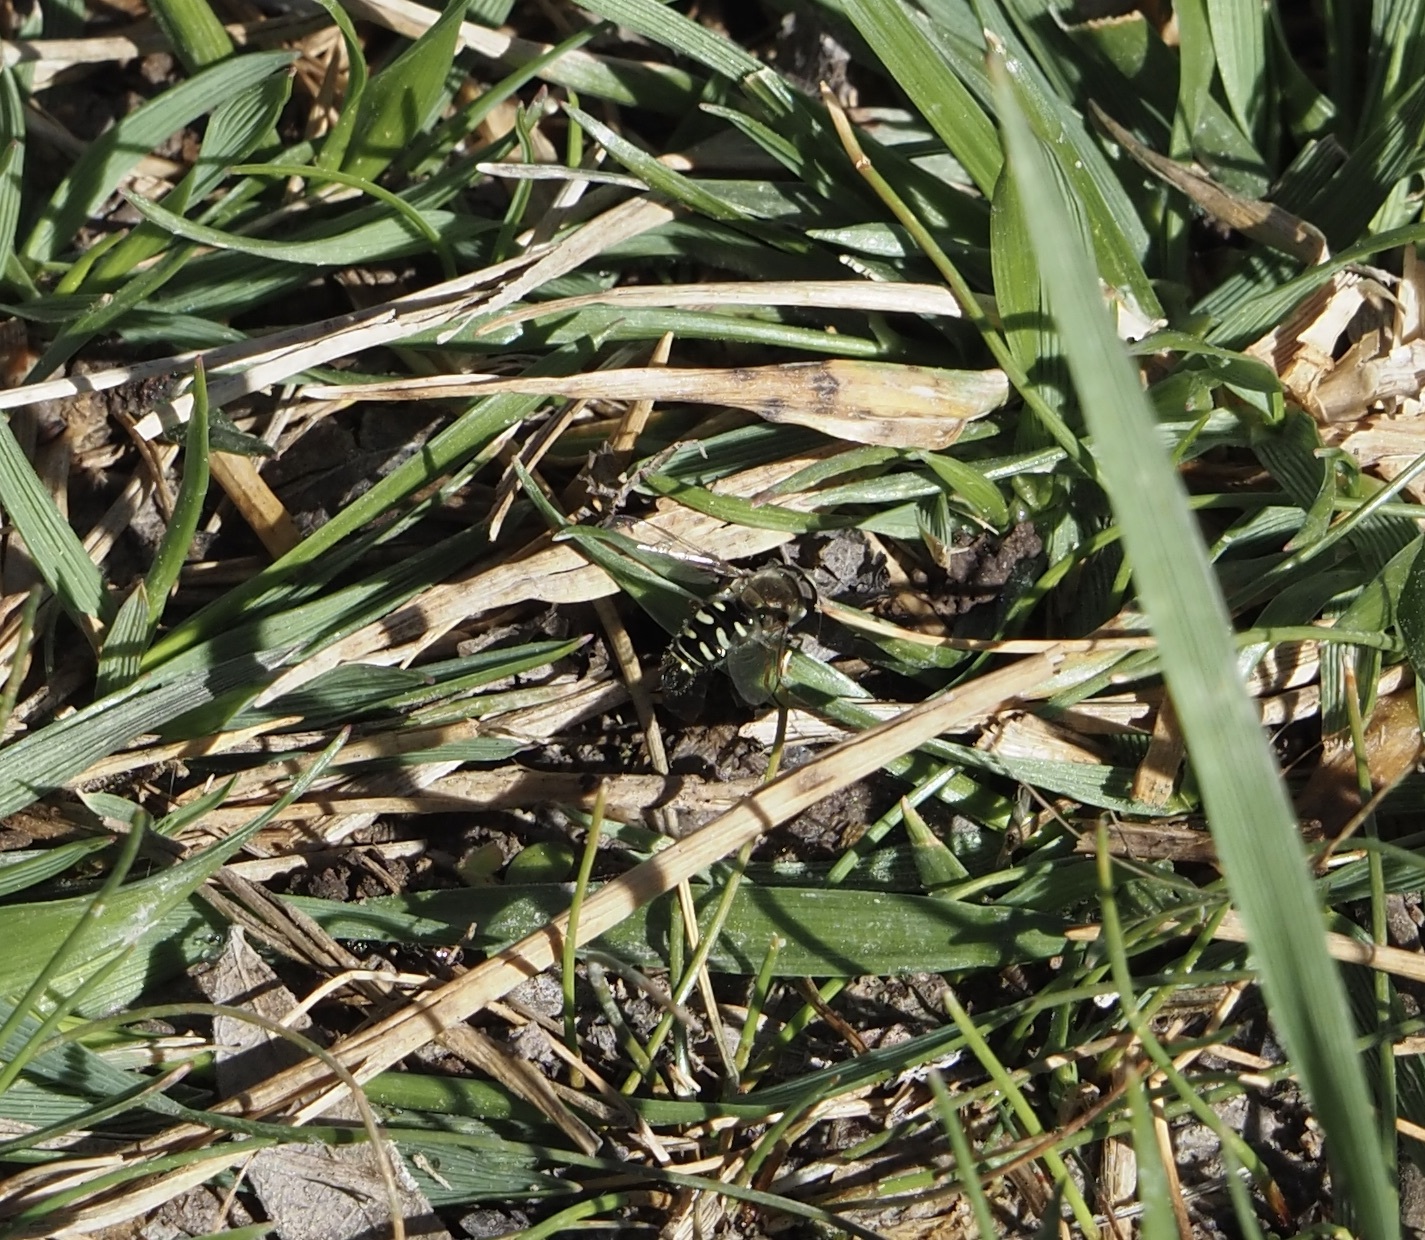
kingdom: Animalia
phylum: Arthropoda
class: Insecta
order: Diptera
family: Syrphidae
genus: Eupeodes
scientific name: Eupeodes volucris
